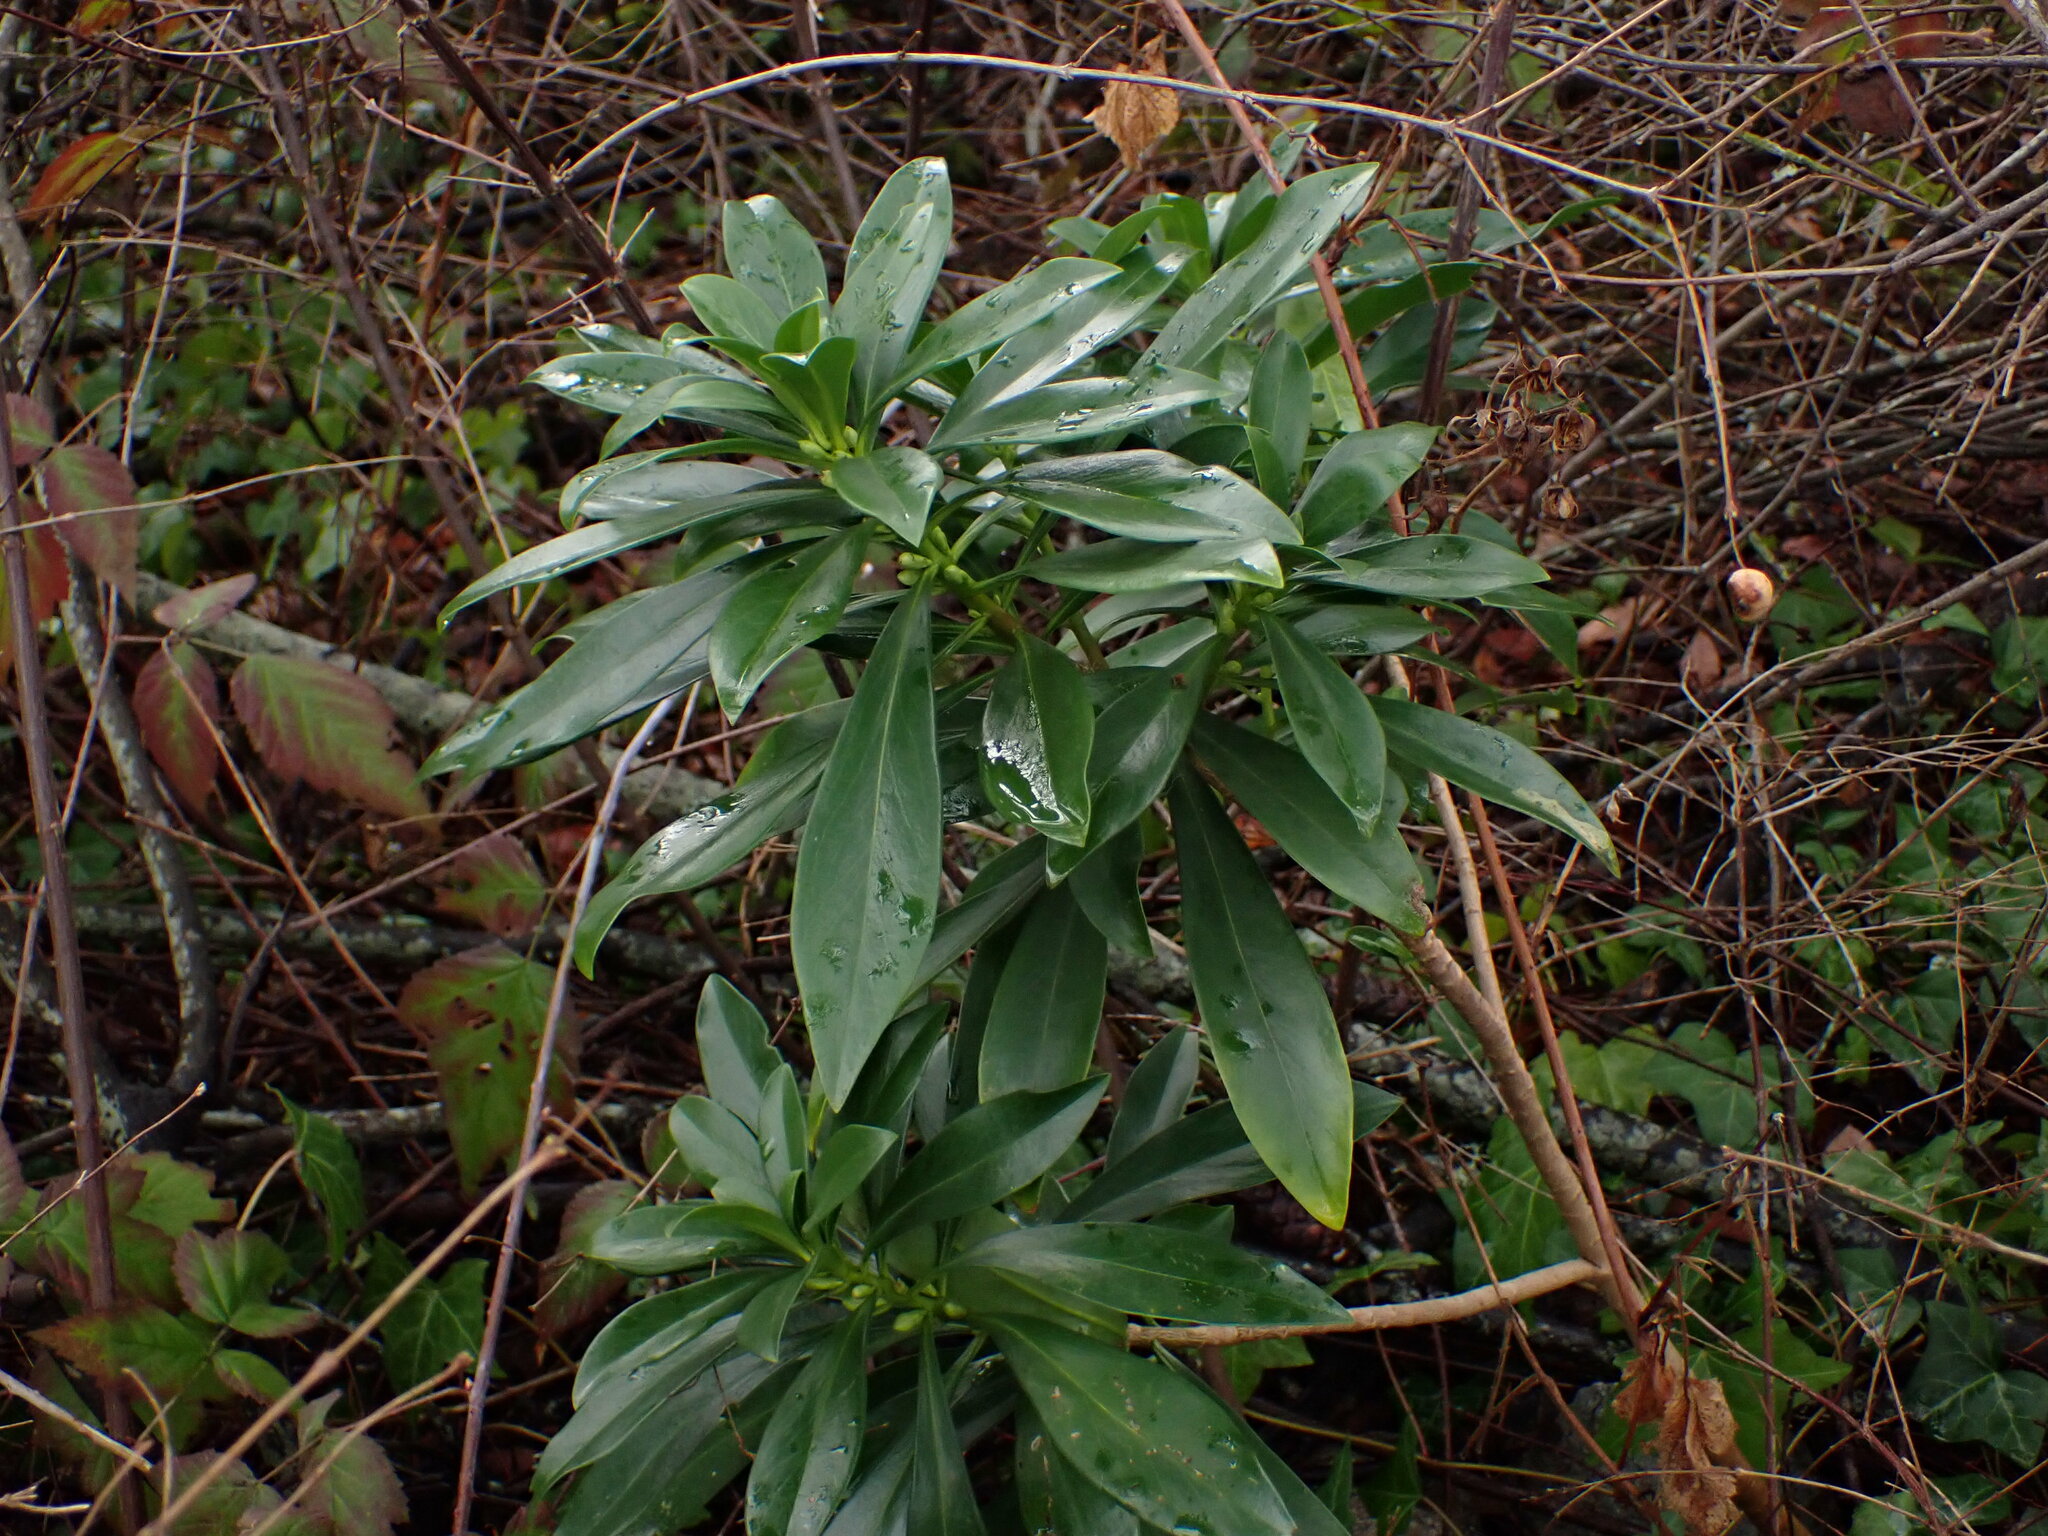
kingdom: Plantae
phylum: Tracheophyta
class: Magnoliopsida
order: Malvales
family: Thymelaeaceae
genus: Daphne
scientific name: Daphne laureola
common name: Spurge-laurel
